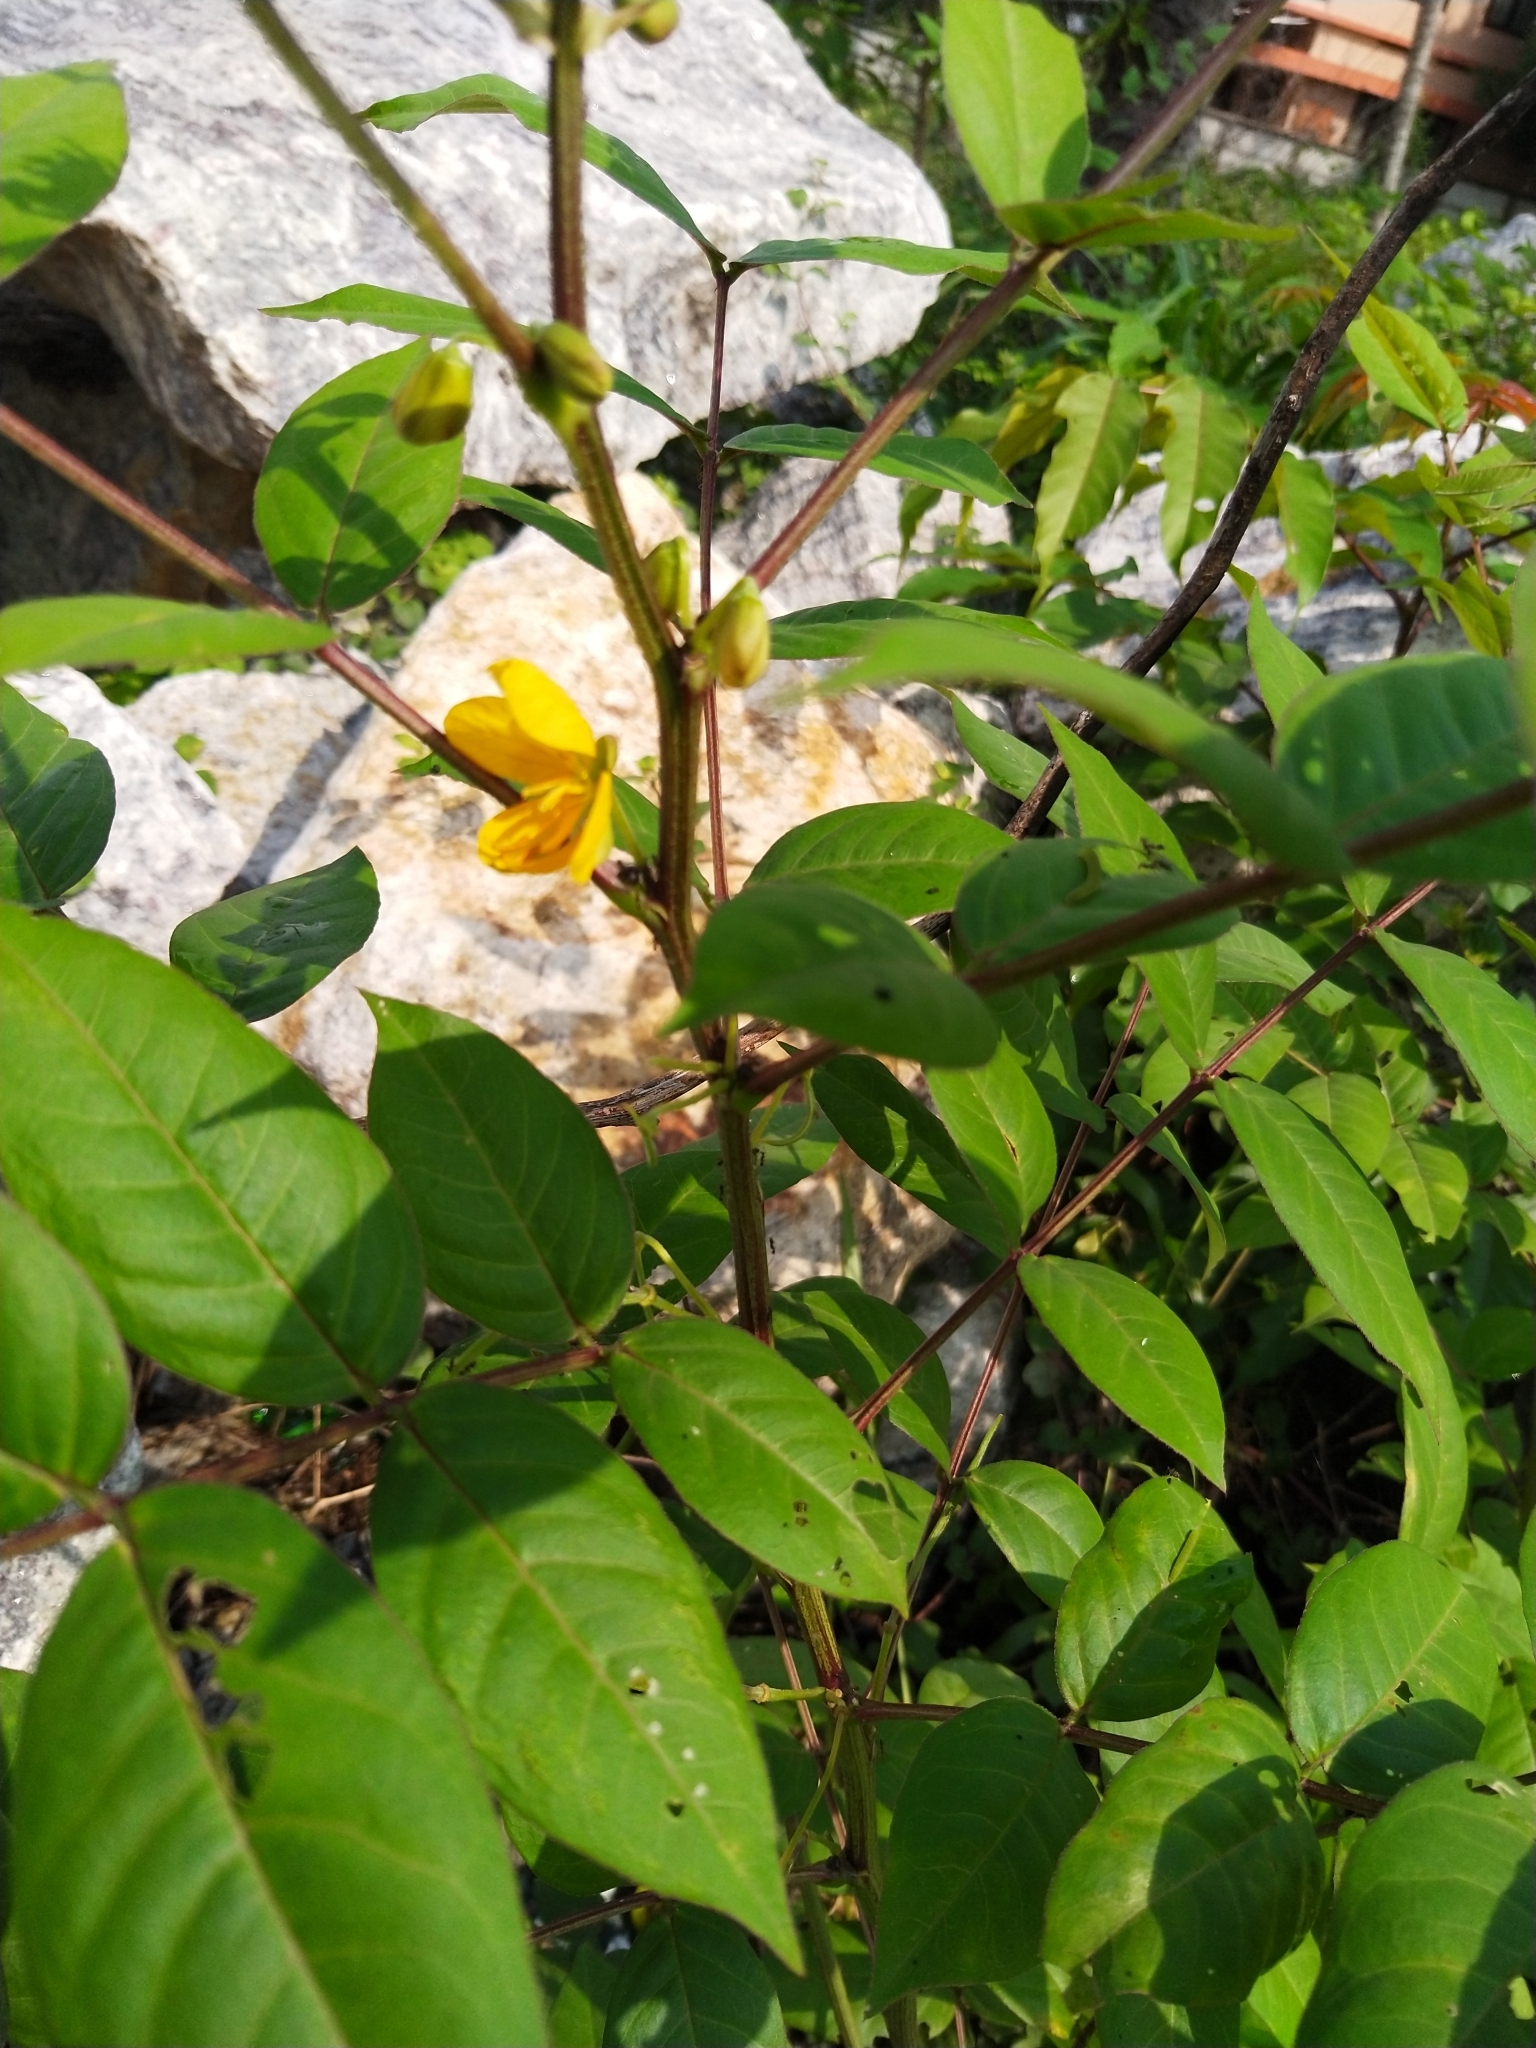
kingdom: Plantae
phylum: Tracheophyta
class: Magnoliopsida
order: Fabales
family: Fabaceae
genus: Senna
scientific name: Senna occidentalis
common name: Septicweed
